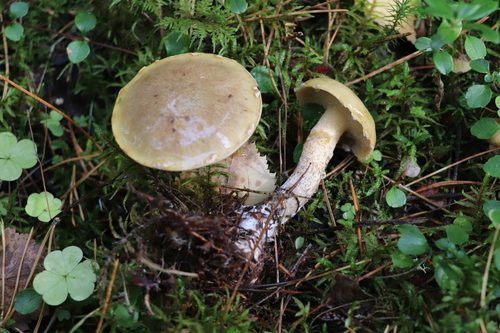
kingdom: Fungi
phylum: Basidiomycota
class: Agaricomycetes
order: Boletales
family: Suillaceae
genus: Suillus
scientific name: Suillus acidus
